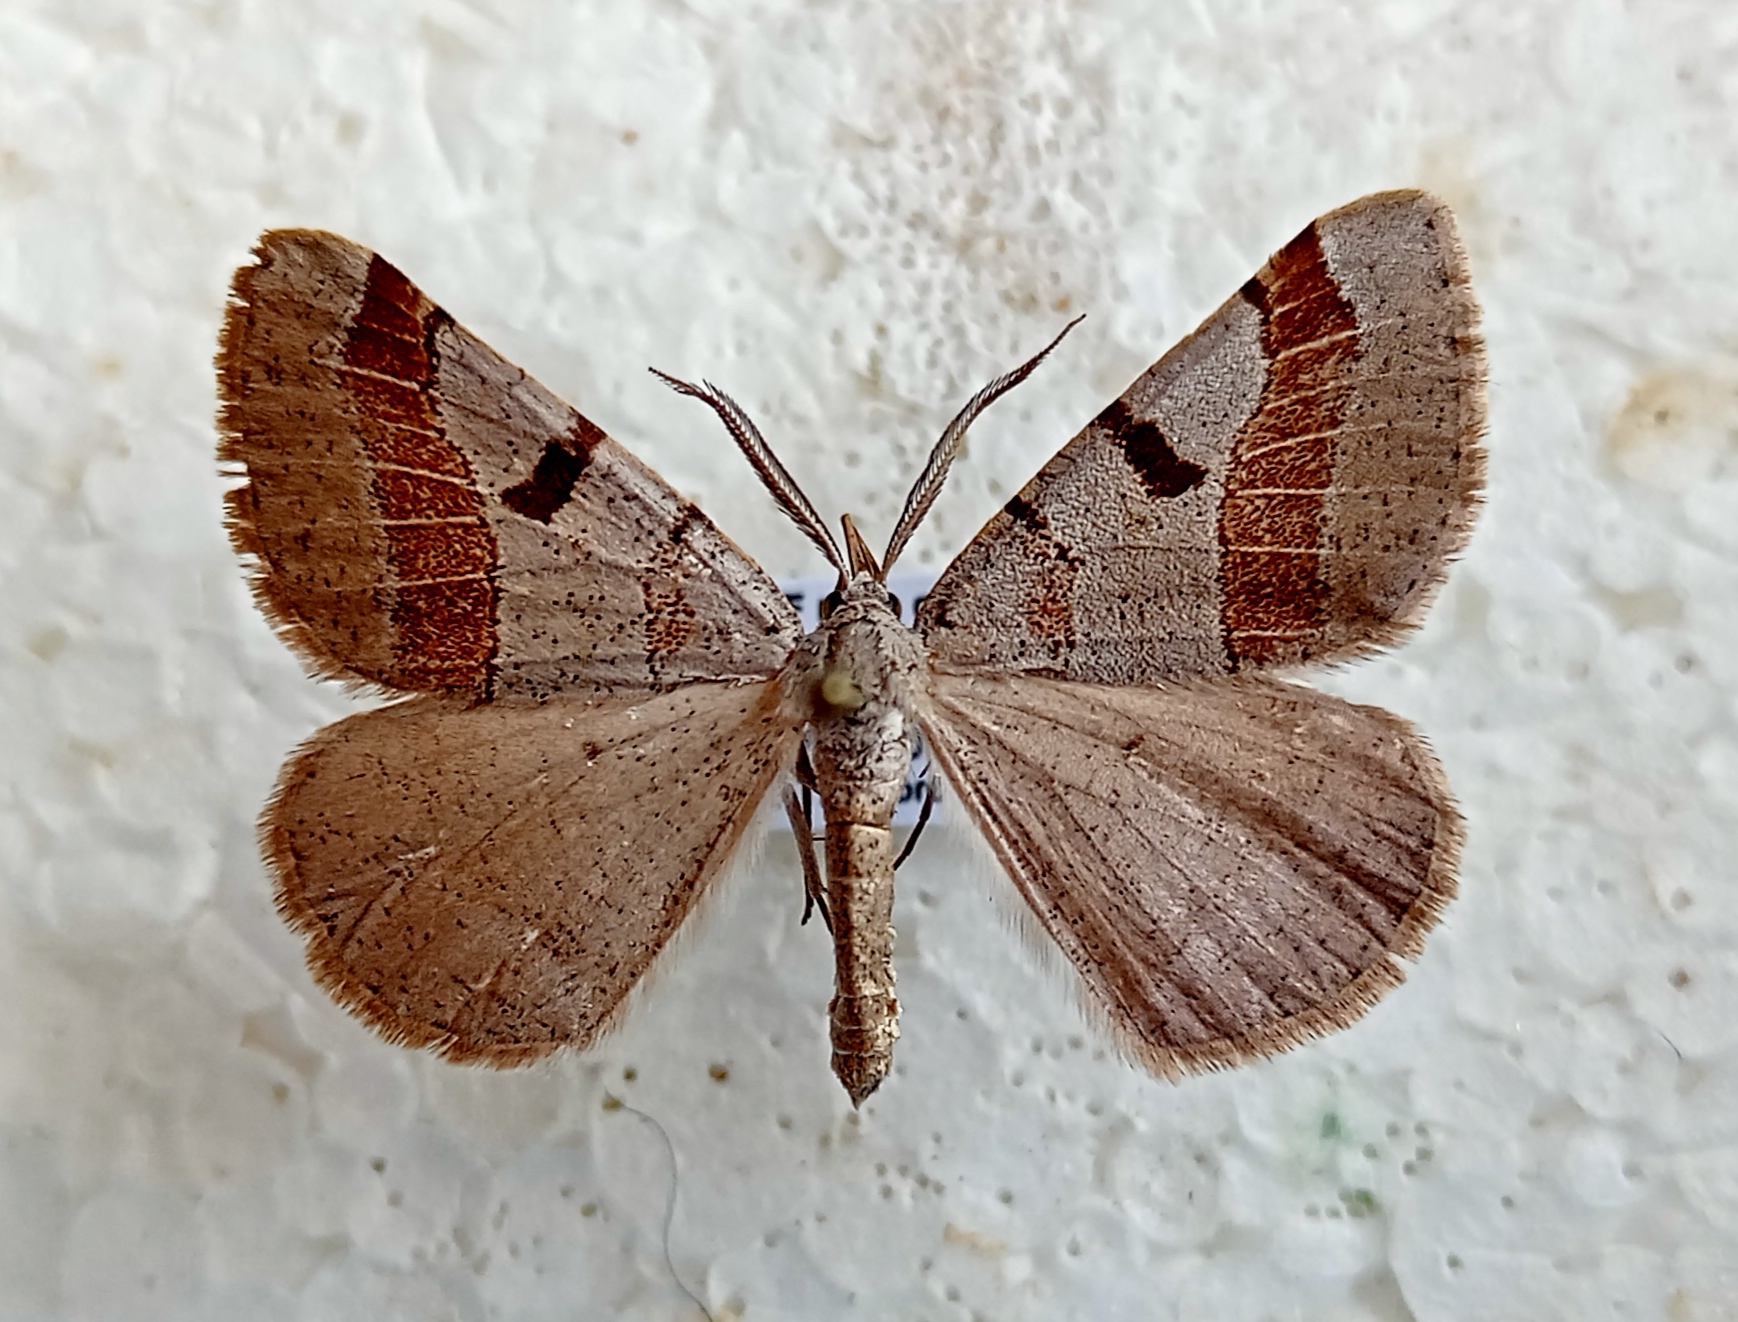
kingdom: Animalia
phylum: Arthropoda
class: Insecta
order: Lepidoptera
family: Geometridae
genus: Itame
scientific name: Itame vincularia
